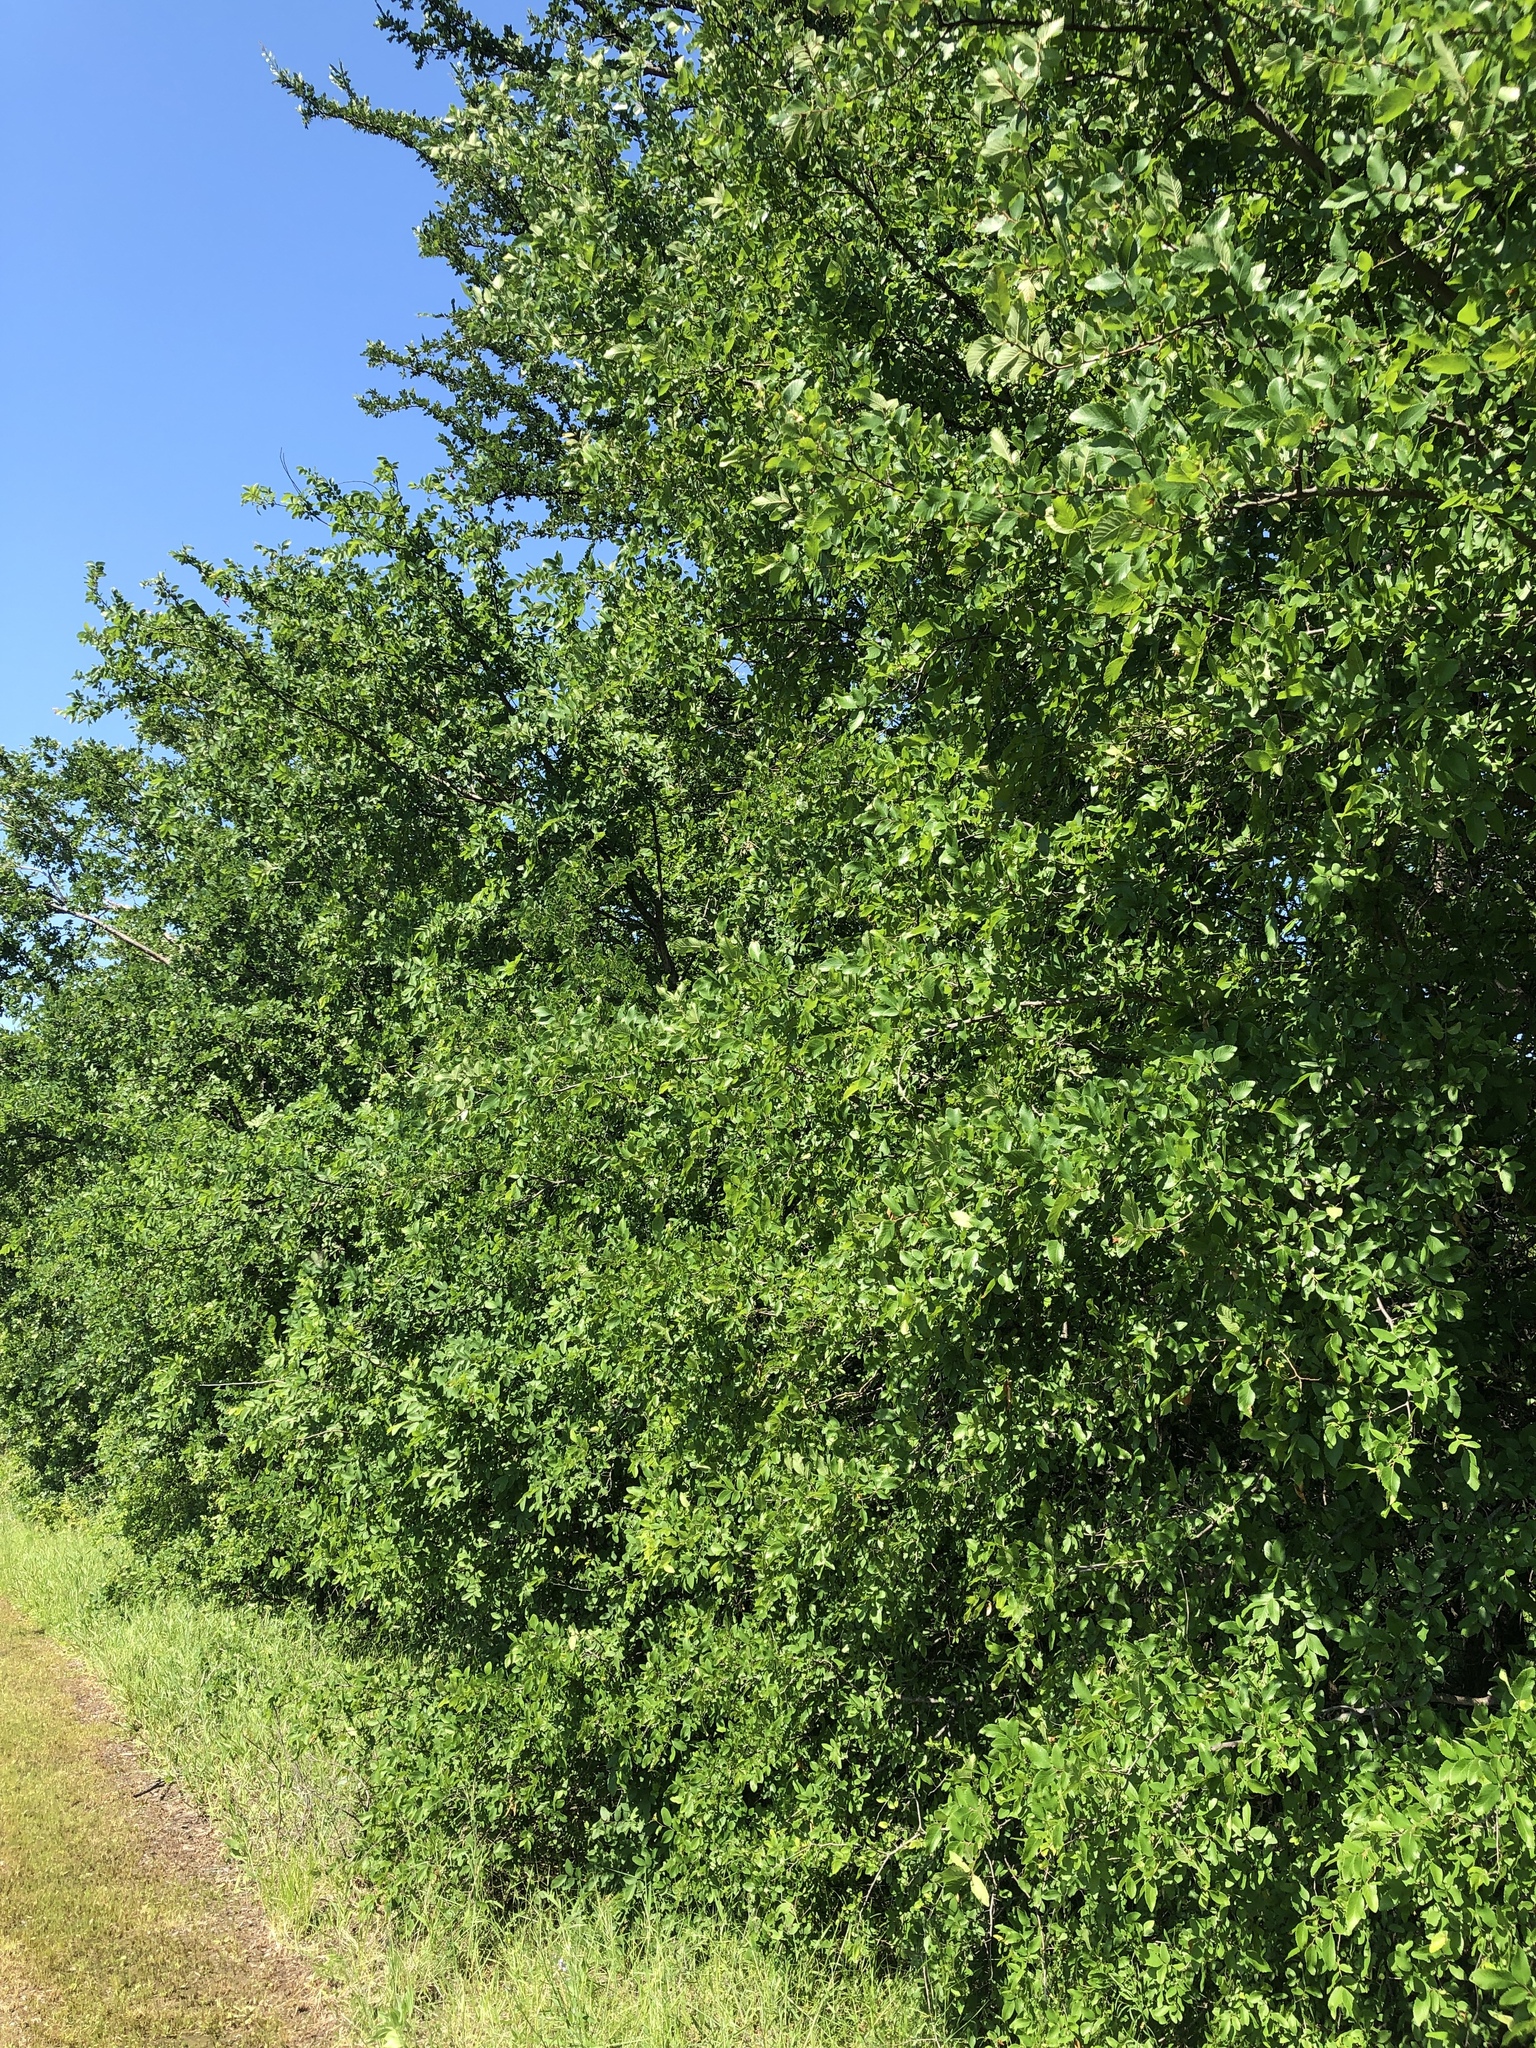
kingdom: Plantae
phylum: Tracheophyta
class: Magnoliopsida
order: Rosales
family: Ulmaceae
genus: Ulmus
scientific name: Ulmus crassifolia
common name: Basket elm
